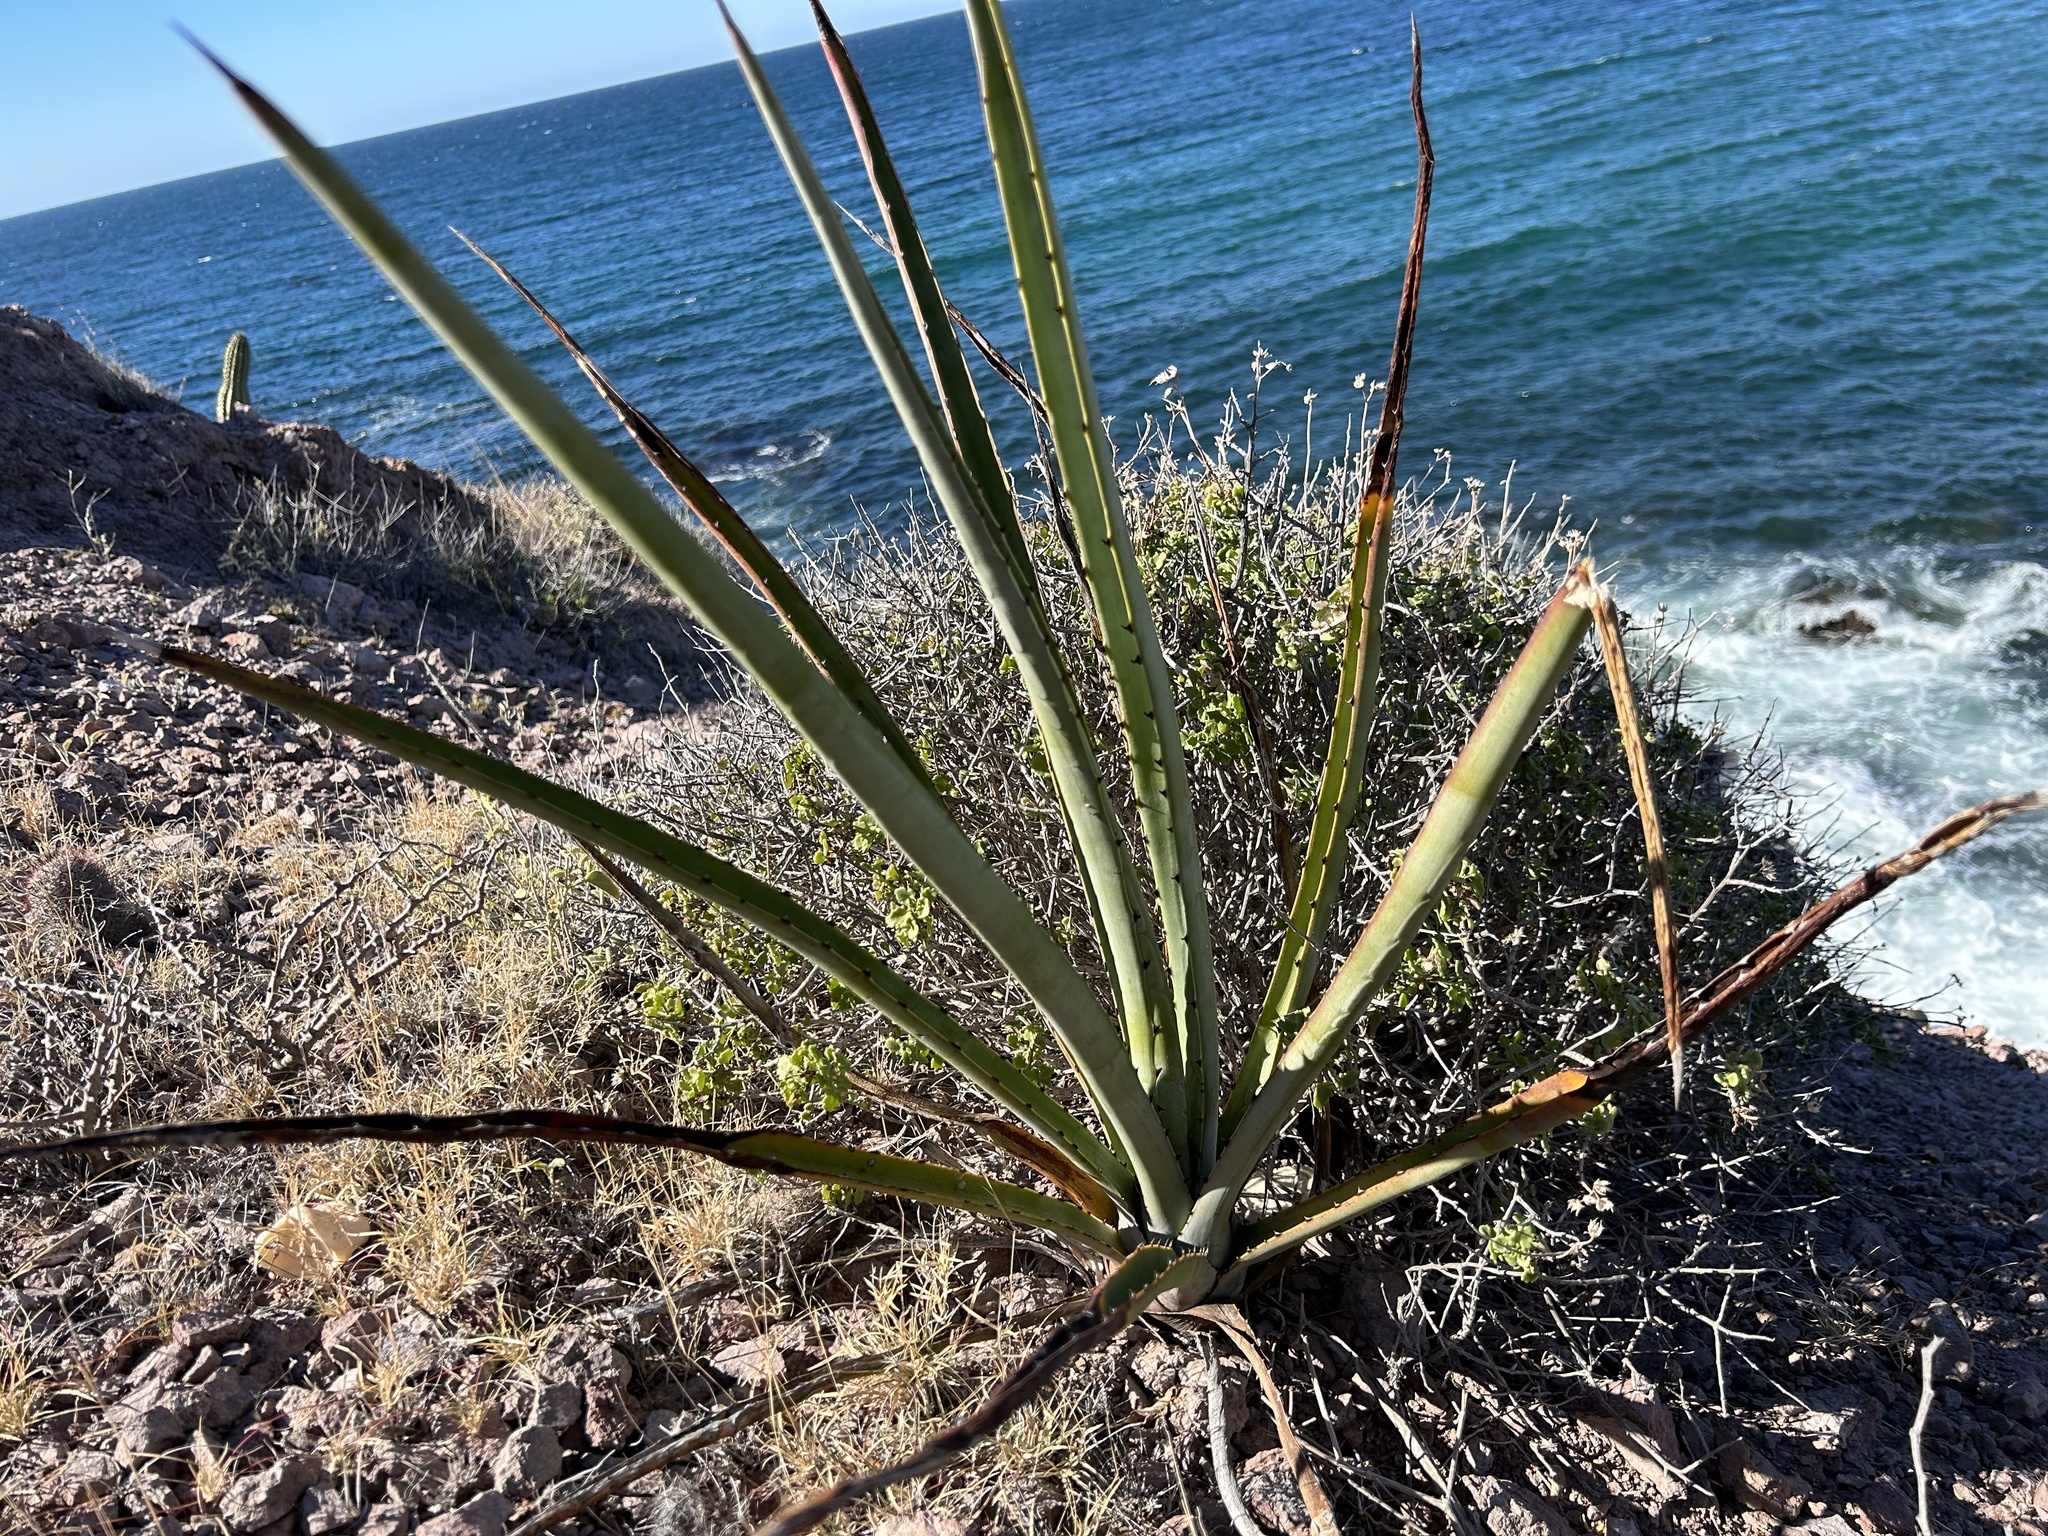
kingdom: Plantae
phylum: Tracheophyta
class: Liliopsida
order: Asparagales
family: Asparagaceae
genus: Agave
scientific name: Agave angustifolia
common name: Mescal agave
